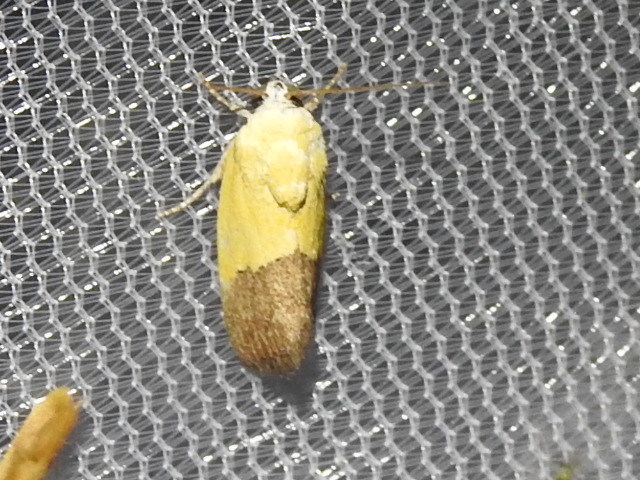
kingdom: Animalia
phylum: Arthropoda
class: Insecta
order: Lepidoptera
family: Noctuidae
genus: Acontia
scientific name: Acontia semiflava
